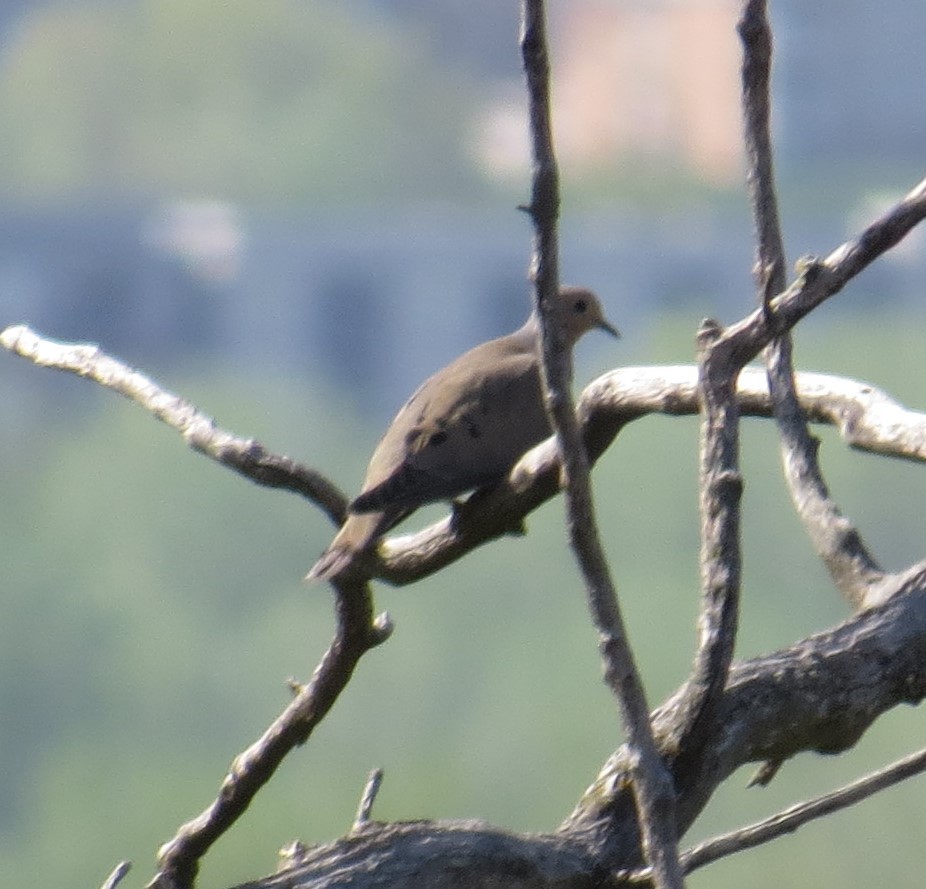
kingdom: Animalia
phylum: Chordata
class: Aves
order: Columbiformes
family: Columbidae
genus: Zenaida
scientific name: Zenaida macroura
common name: Mourning dove
